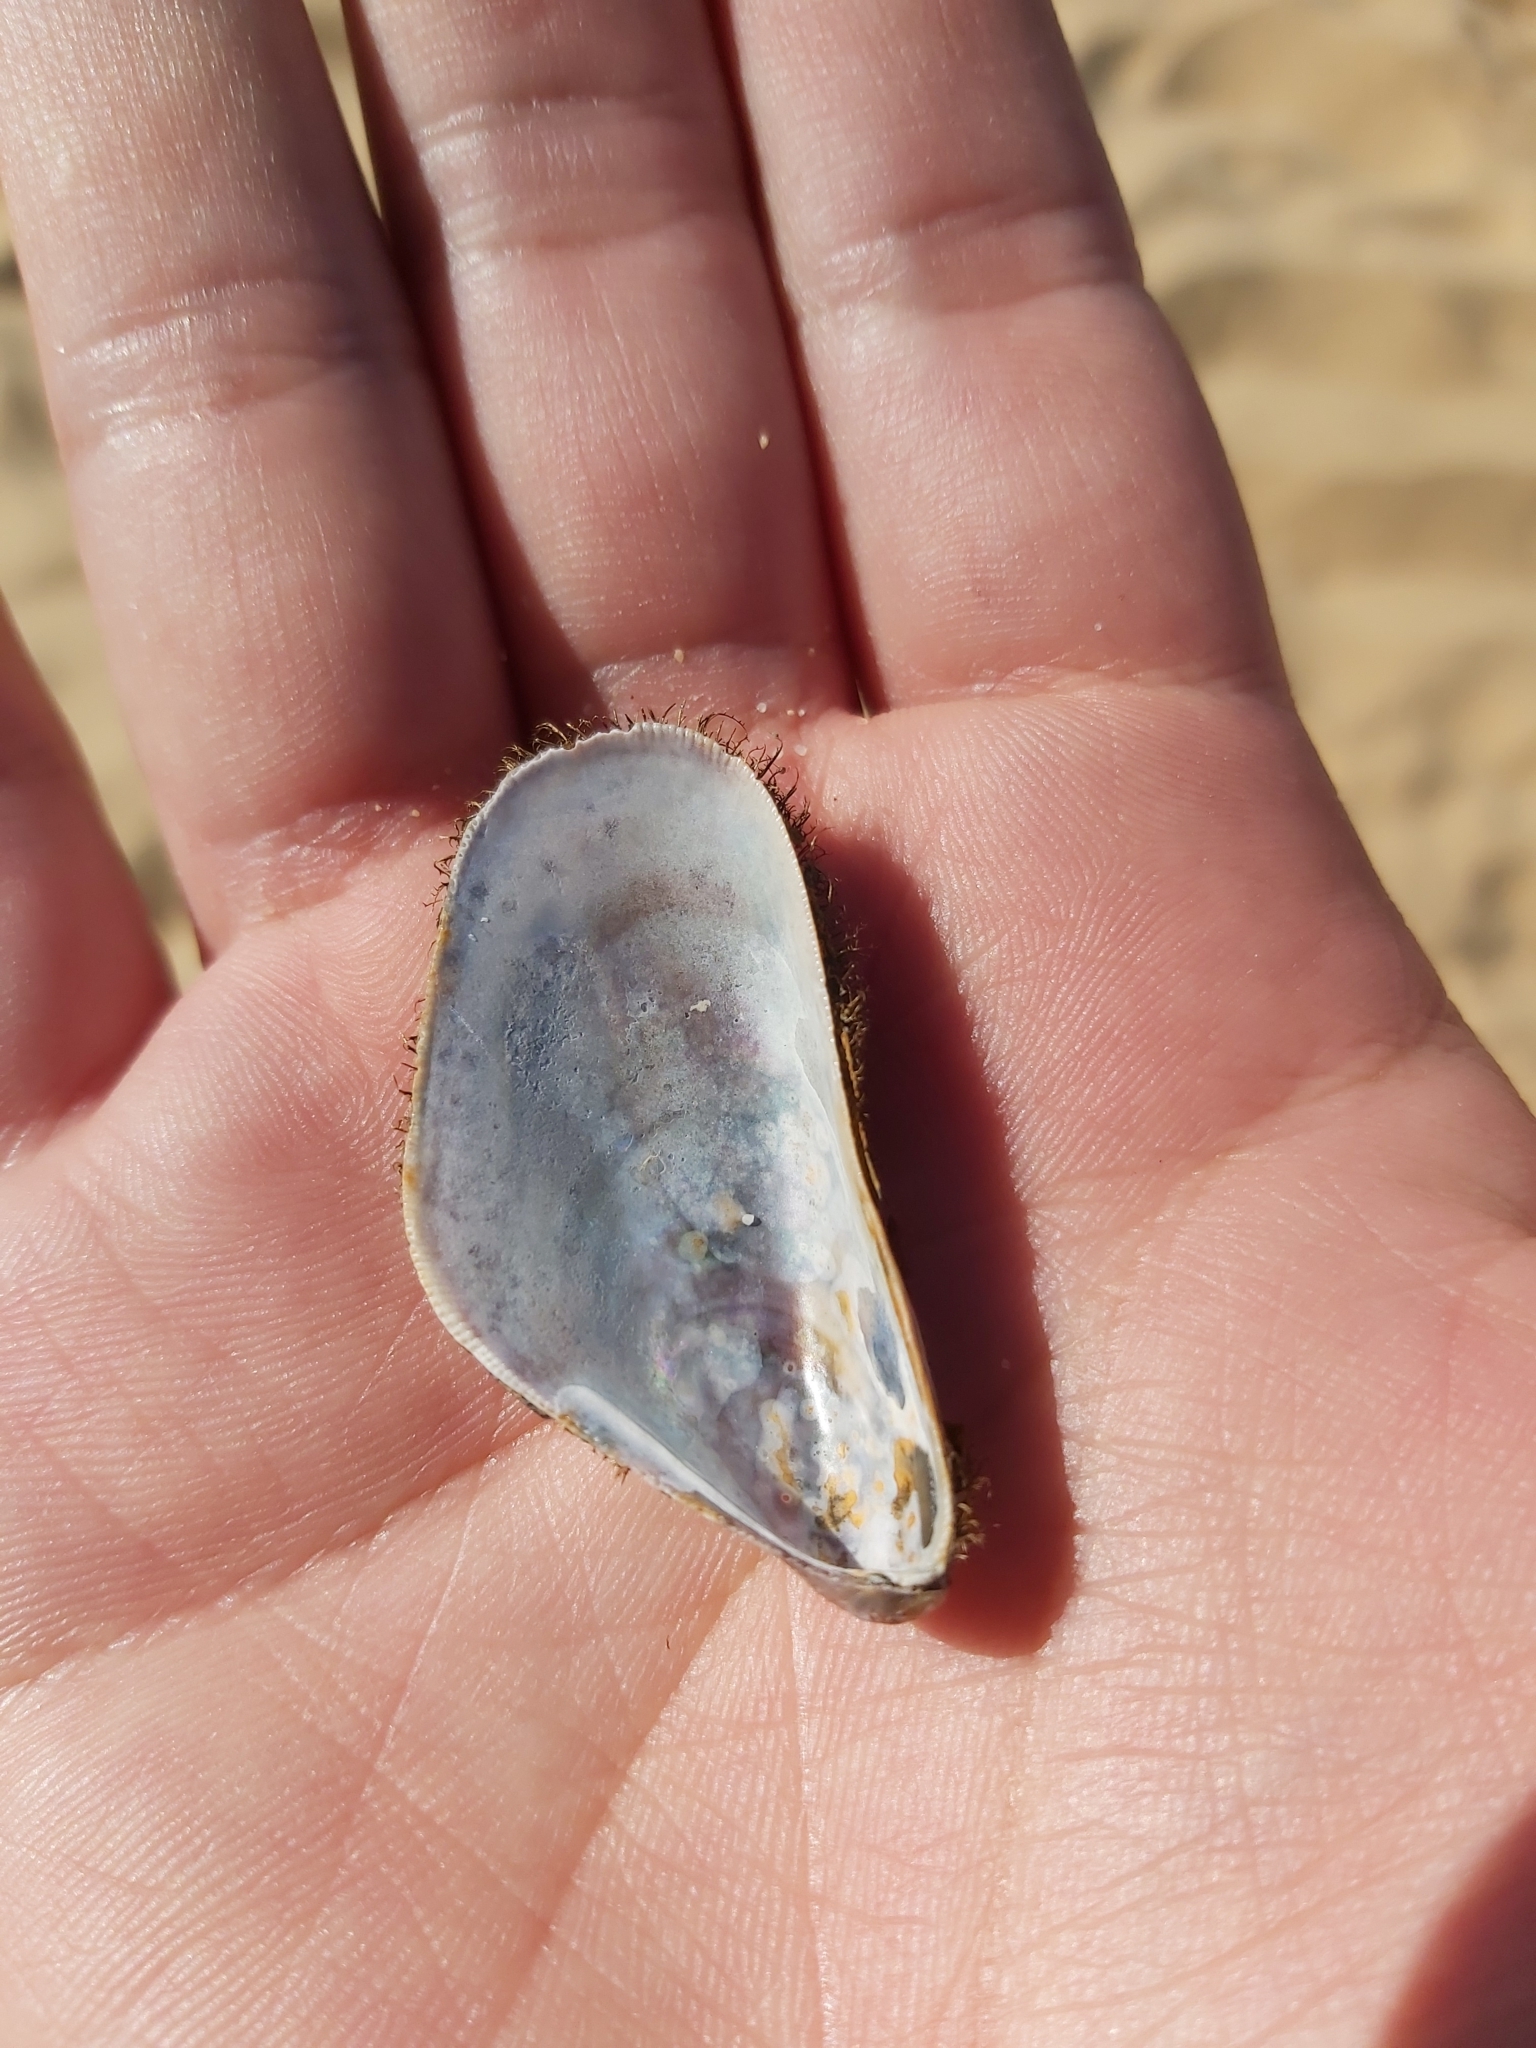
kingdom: Animalia
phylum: Mollusca
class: Bivalvia
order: Mytilida
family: Mytilidae
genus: Trichomya
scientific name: Trichomya hirsuta
